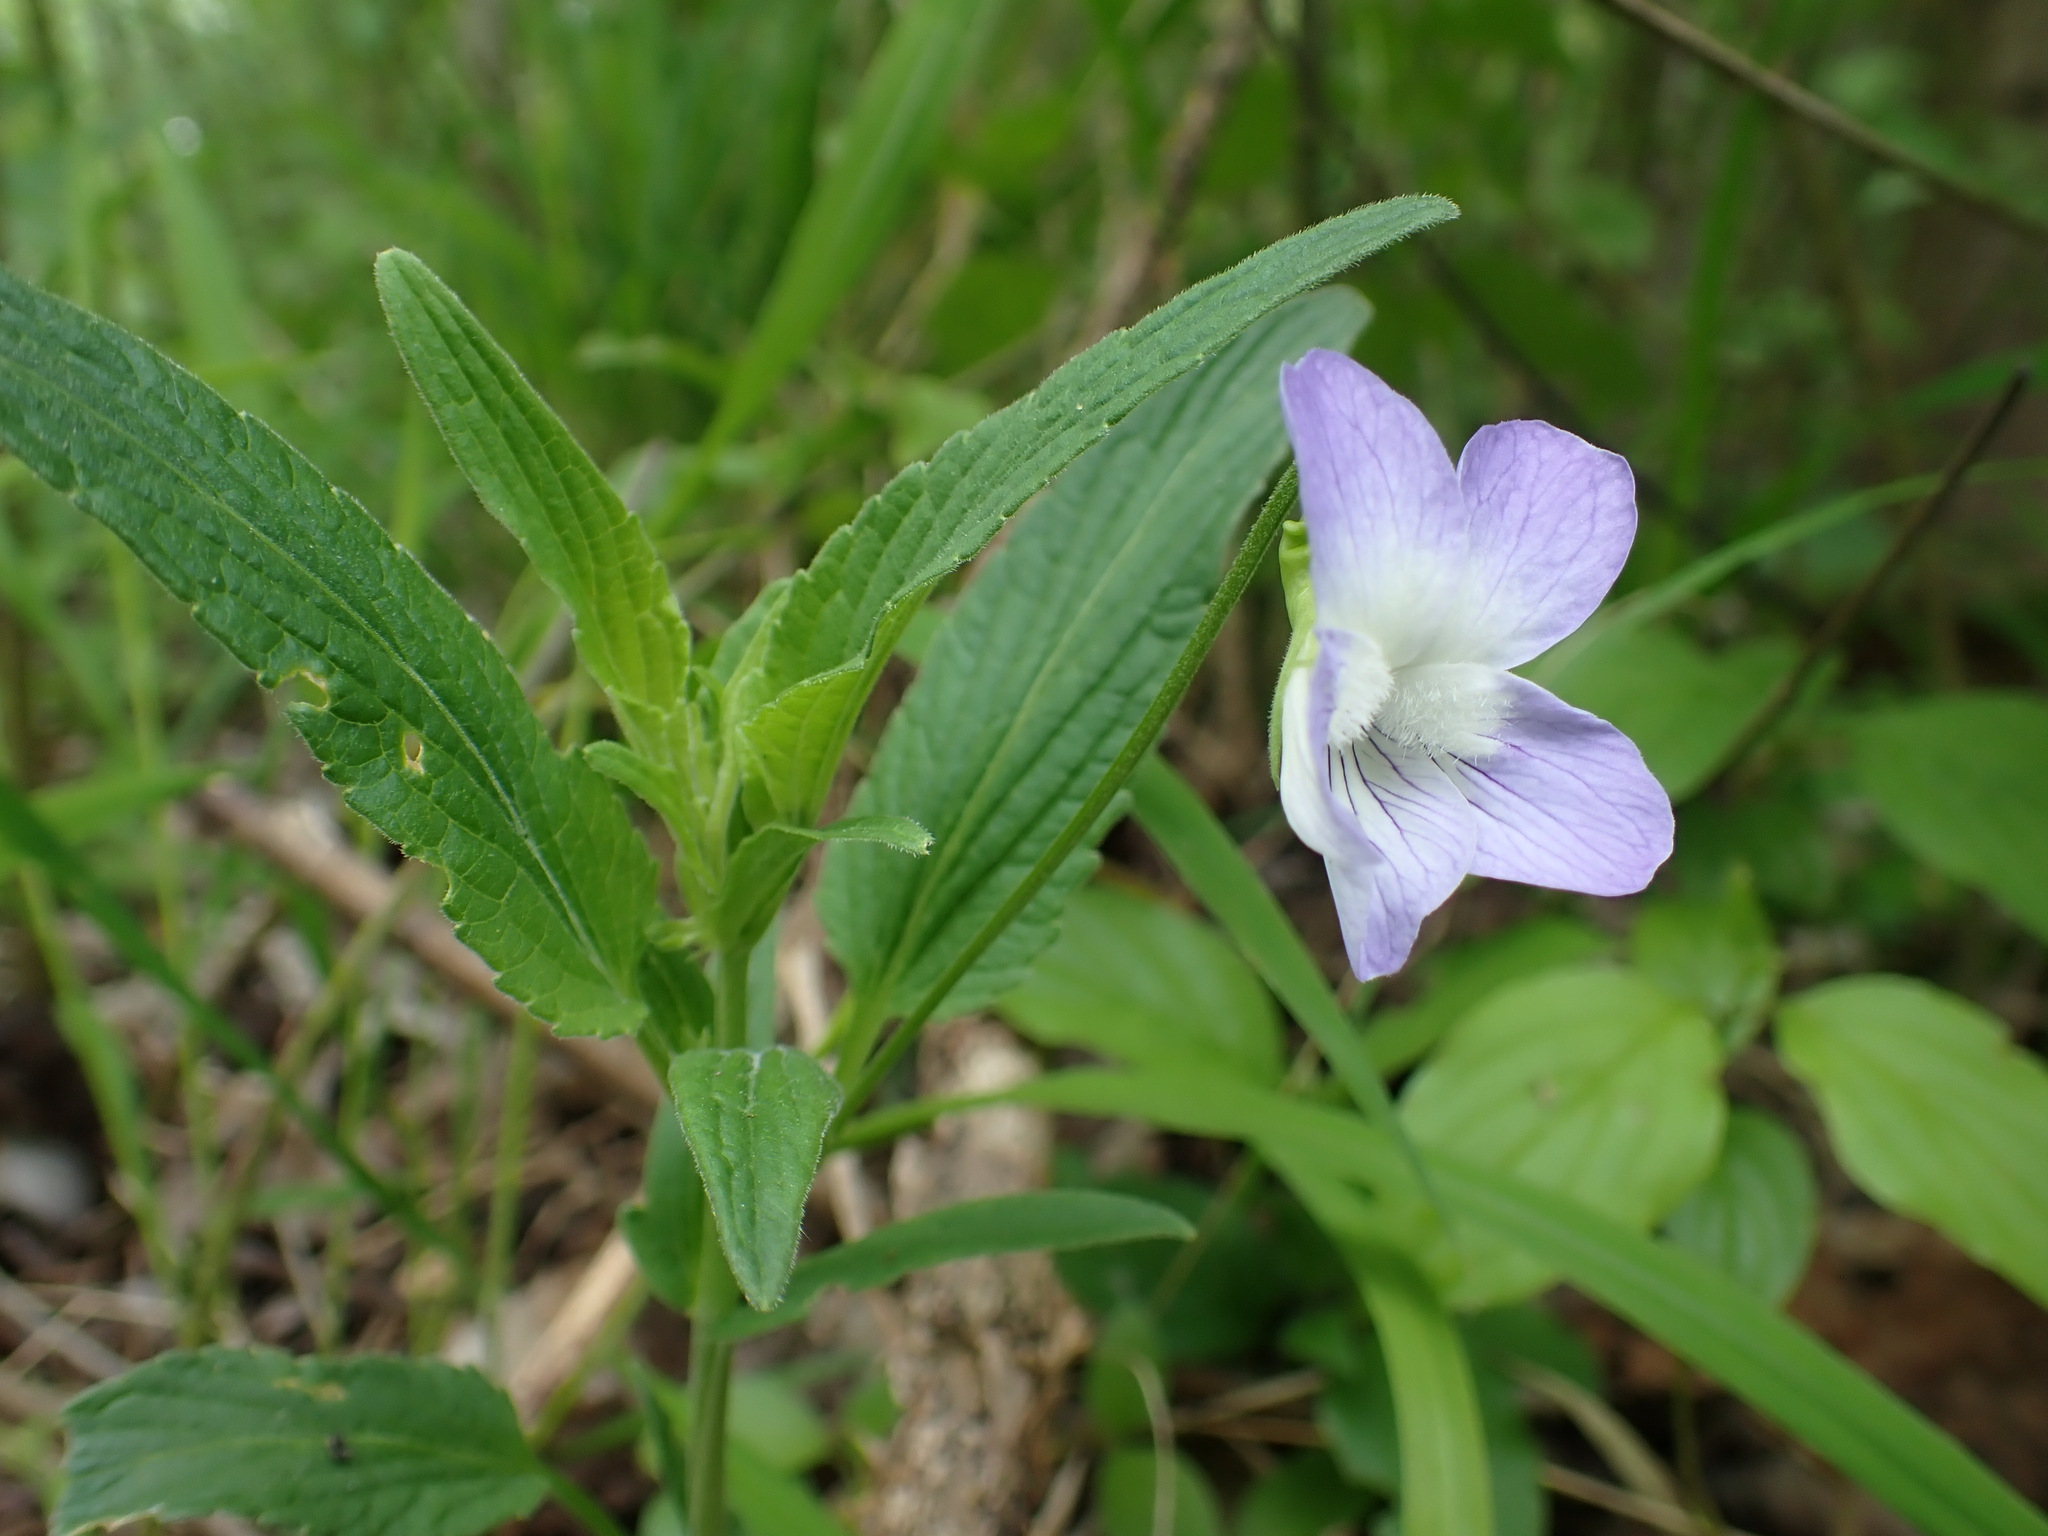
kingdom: Plantae
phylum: Tracheophyta
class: Magnoliopsida
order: Malpighiales
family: Violaceae
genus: Viola
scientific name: Viola elatior
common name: Tall violet
